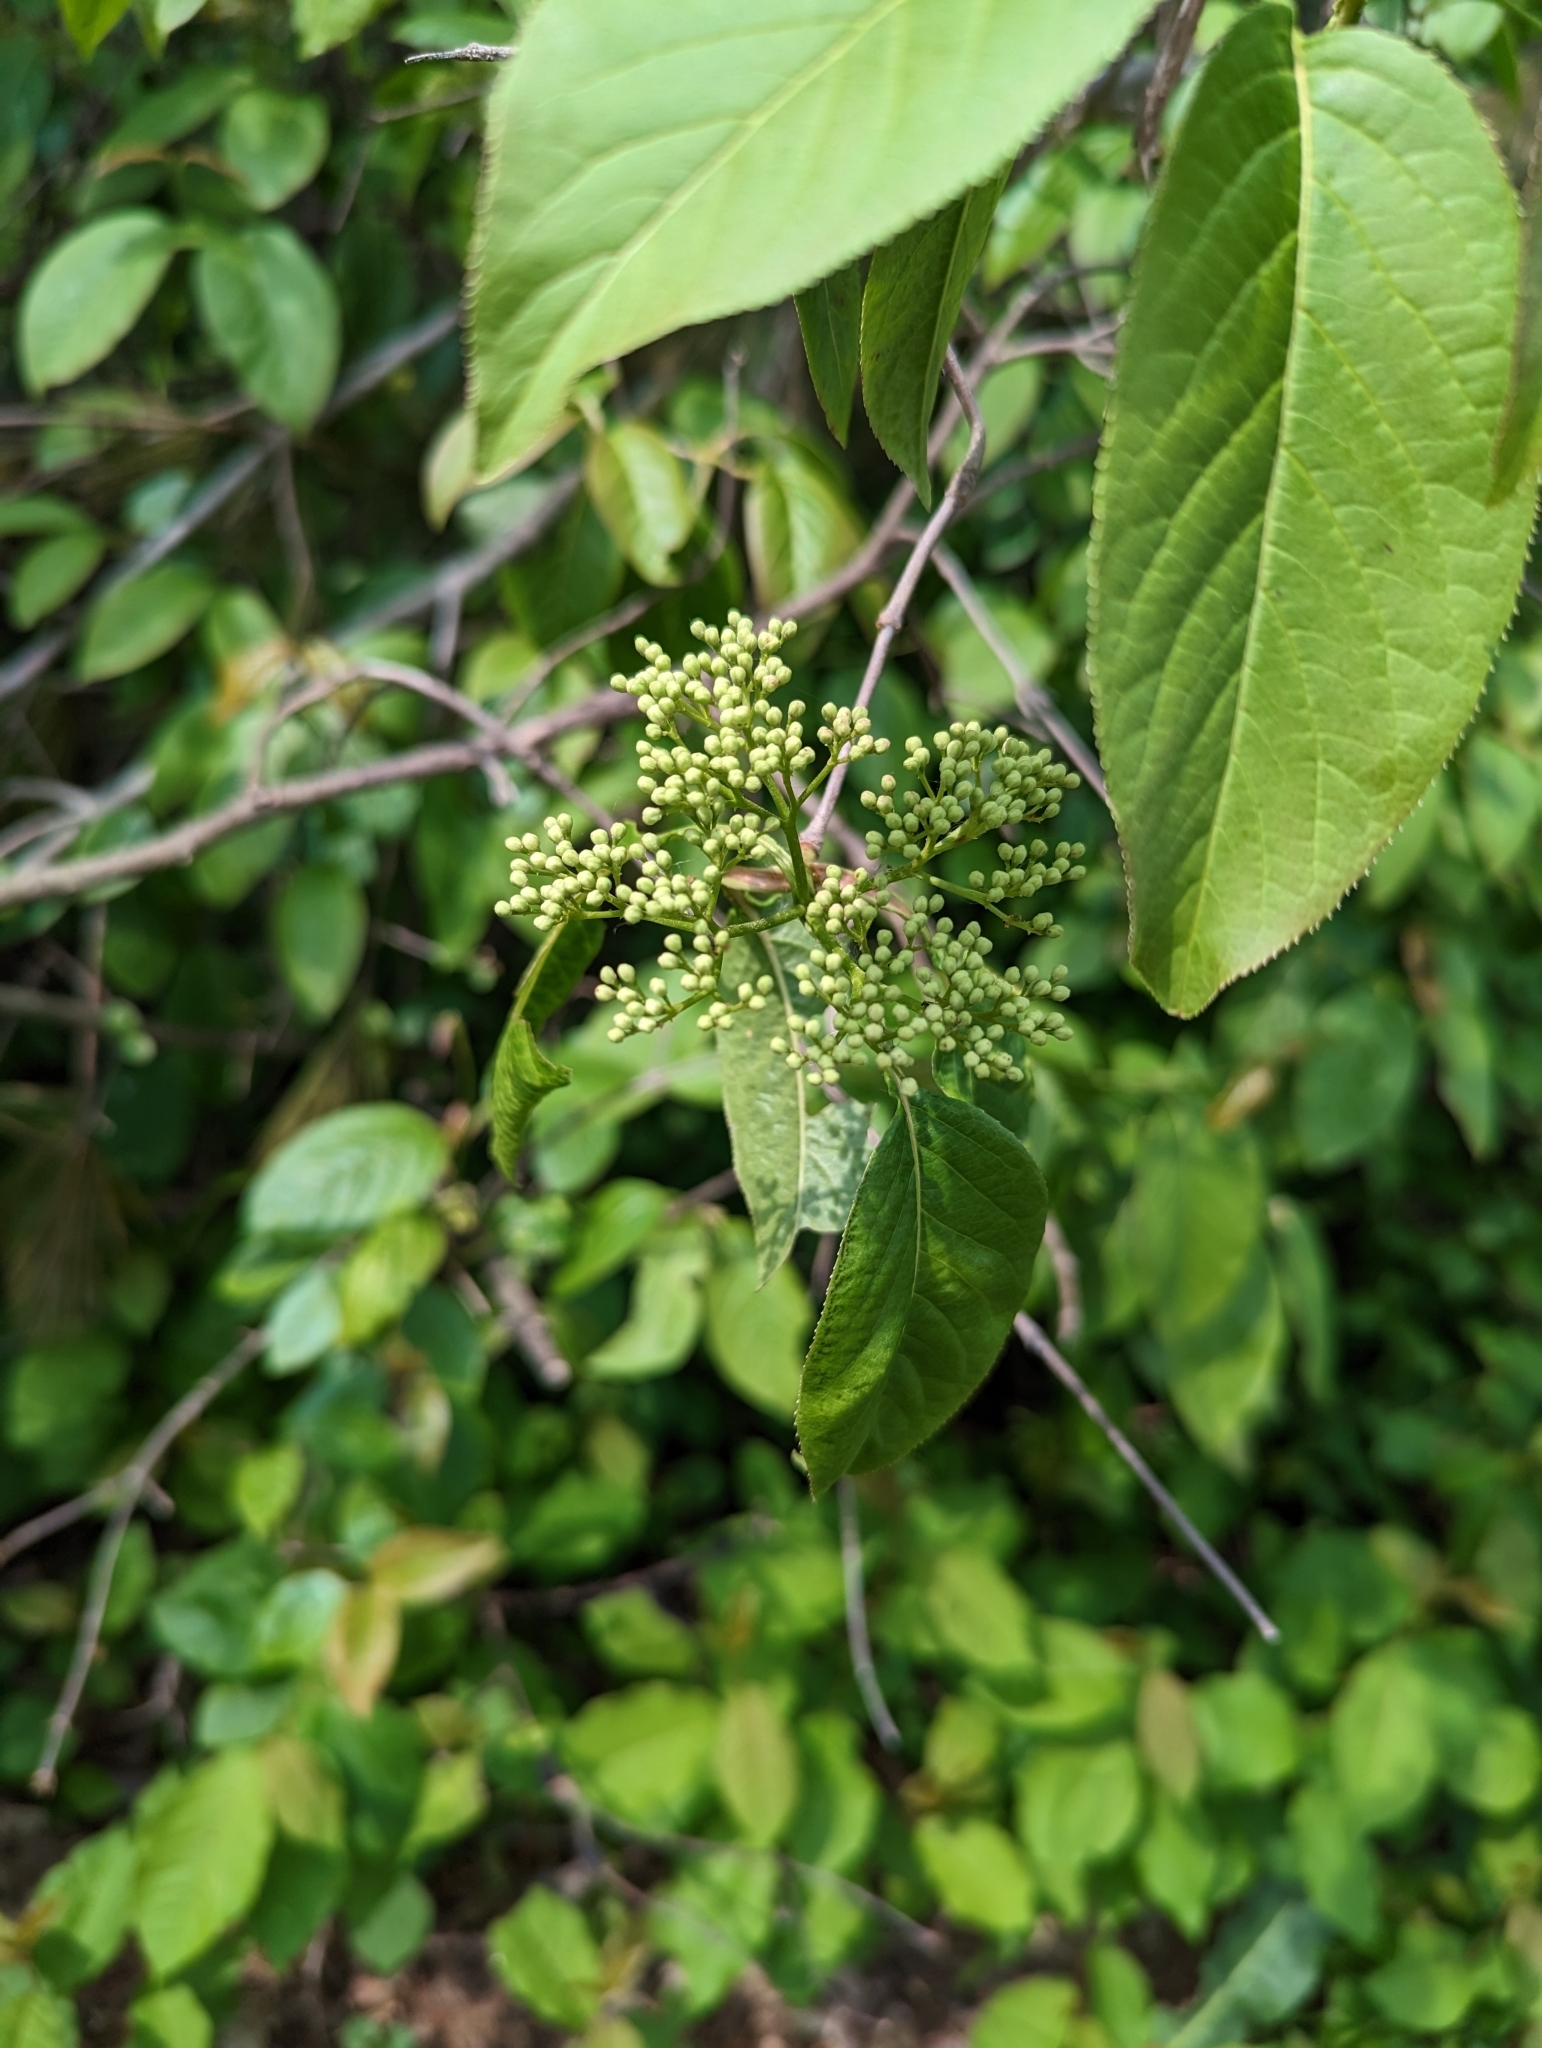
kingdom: Plantae
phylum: Tracheophyta
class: Magnoliopsida
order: Dipsacales
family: Viburnaceae
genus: Viburnum
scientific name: Viburnum lentago
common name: Black haw
